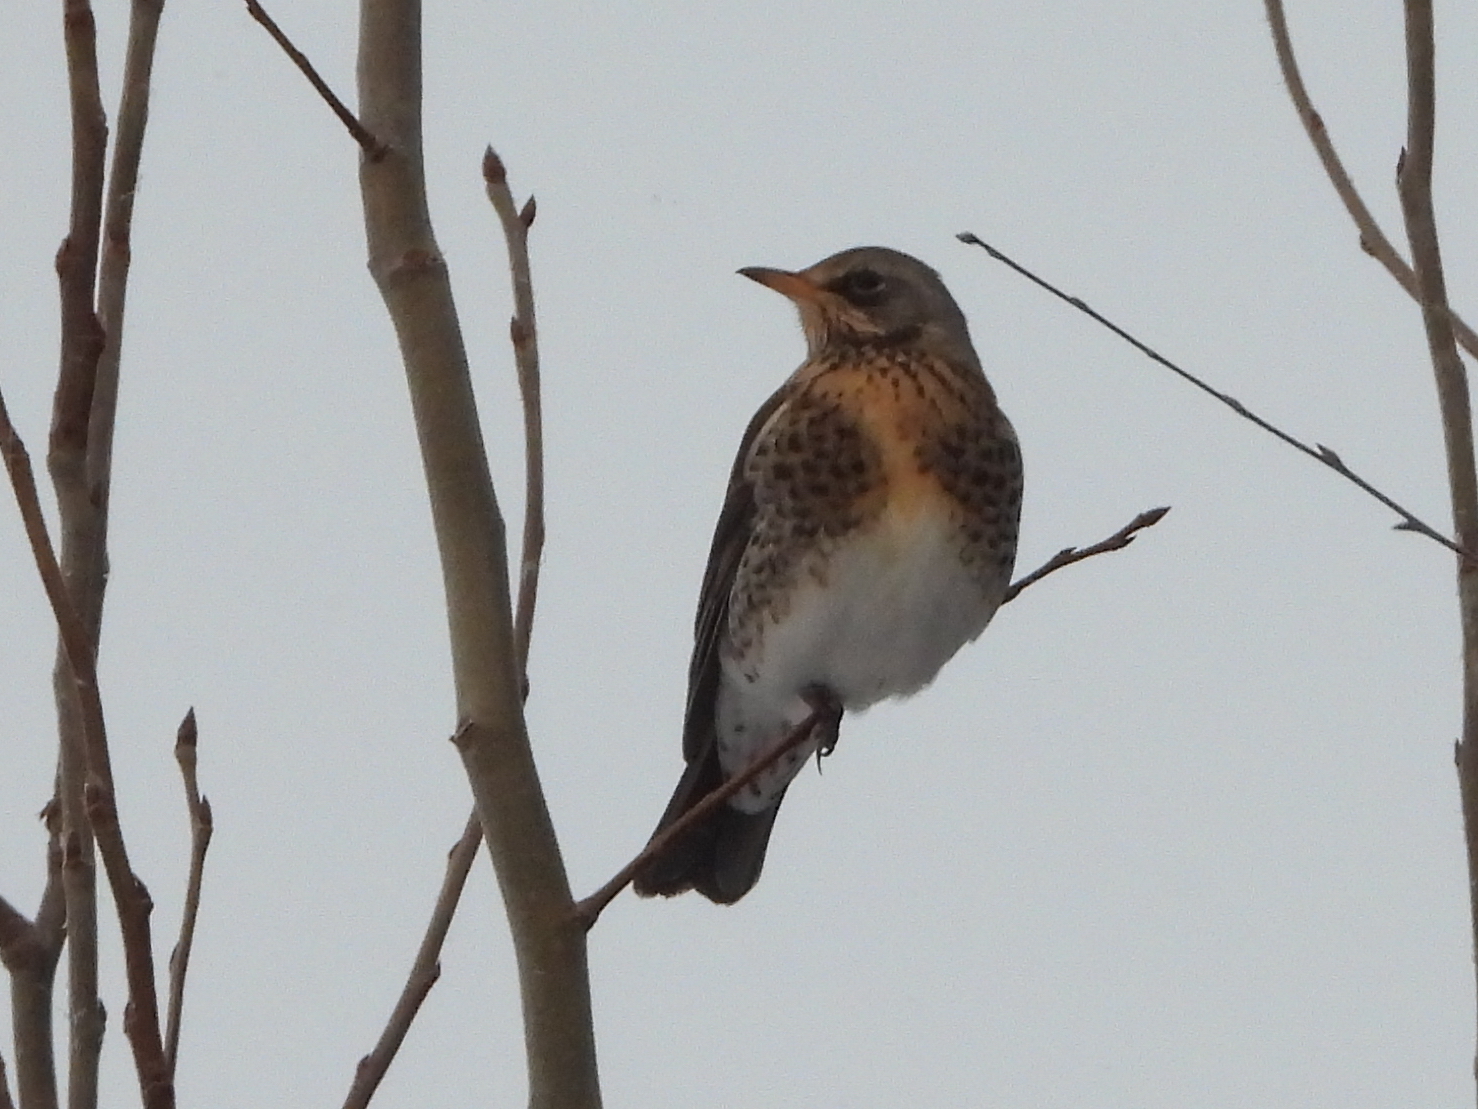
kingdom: Animalia
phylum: Chordata
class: Aves
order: Passeriformes
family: Turdidae
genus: Turdus
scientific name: Turdus pilaris
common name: Fieldfare
